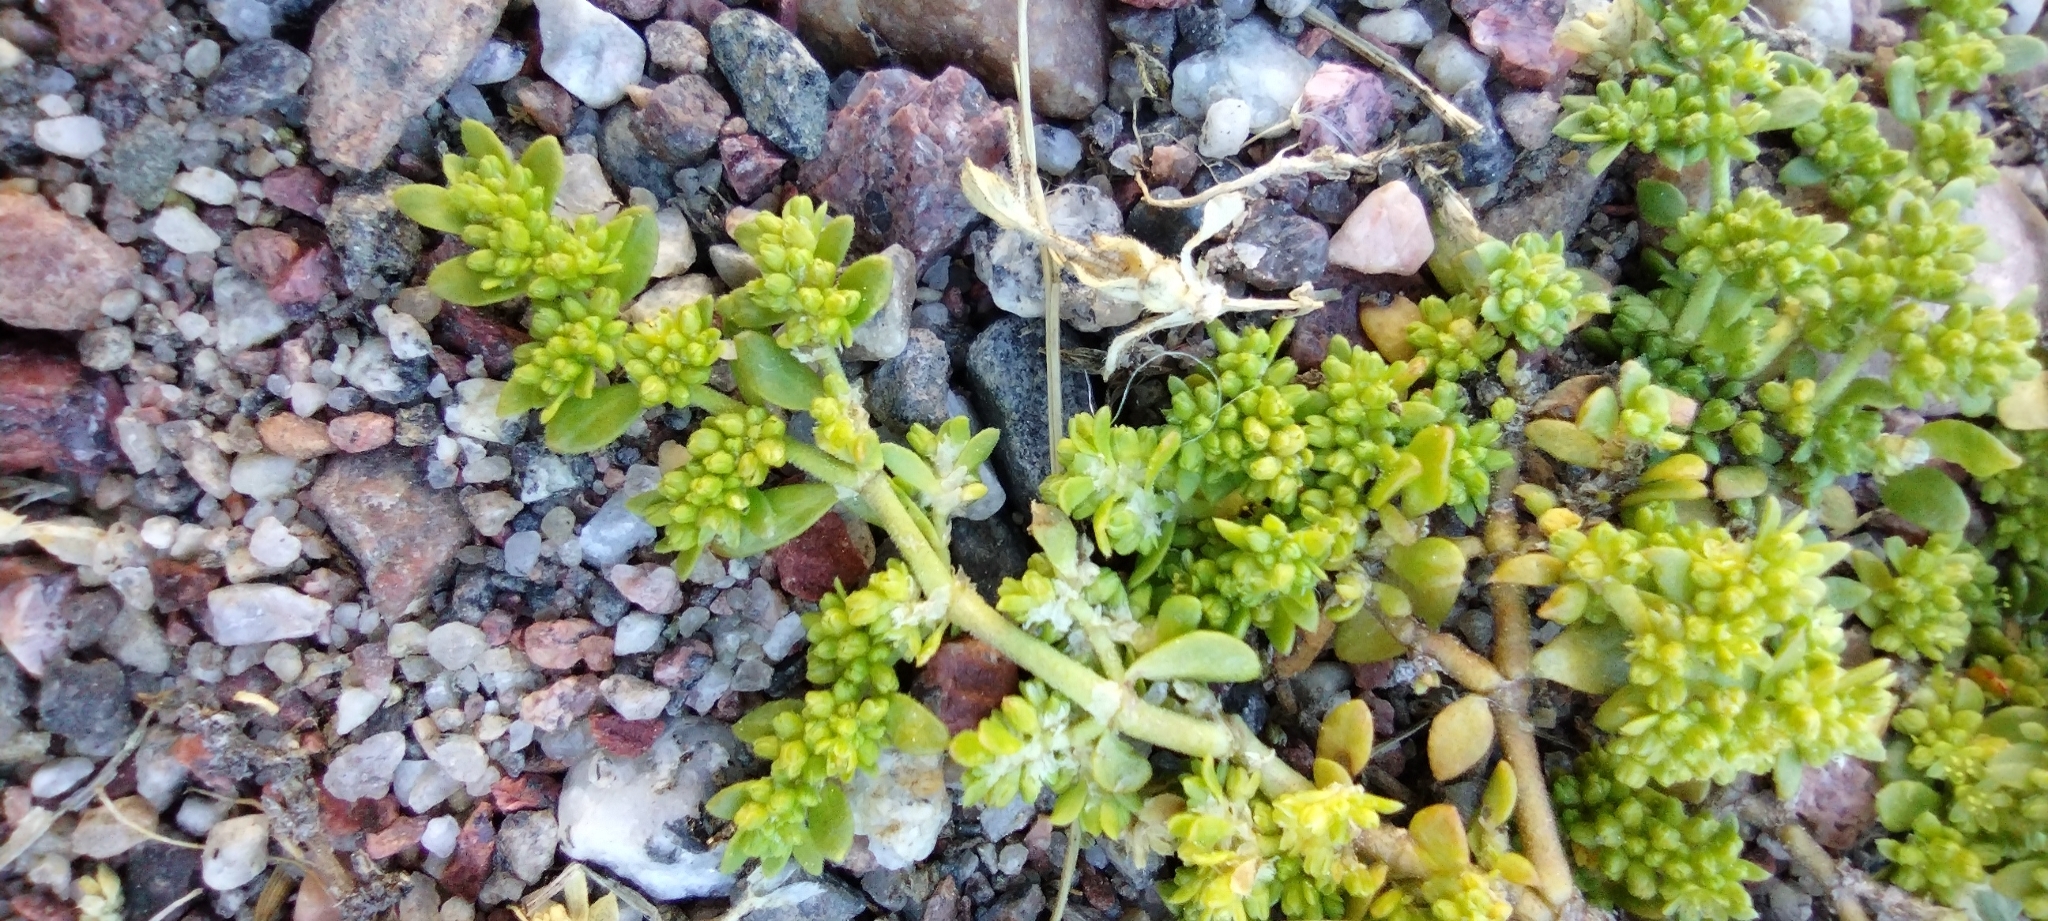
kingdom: Plantae
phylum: Tracheophyta
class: Magnoliopsida
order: Caryophyllales
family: Caryophyllaceae
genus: Herniaria
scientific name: Herniaria glabra
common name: Smooth rupturewort
